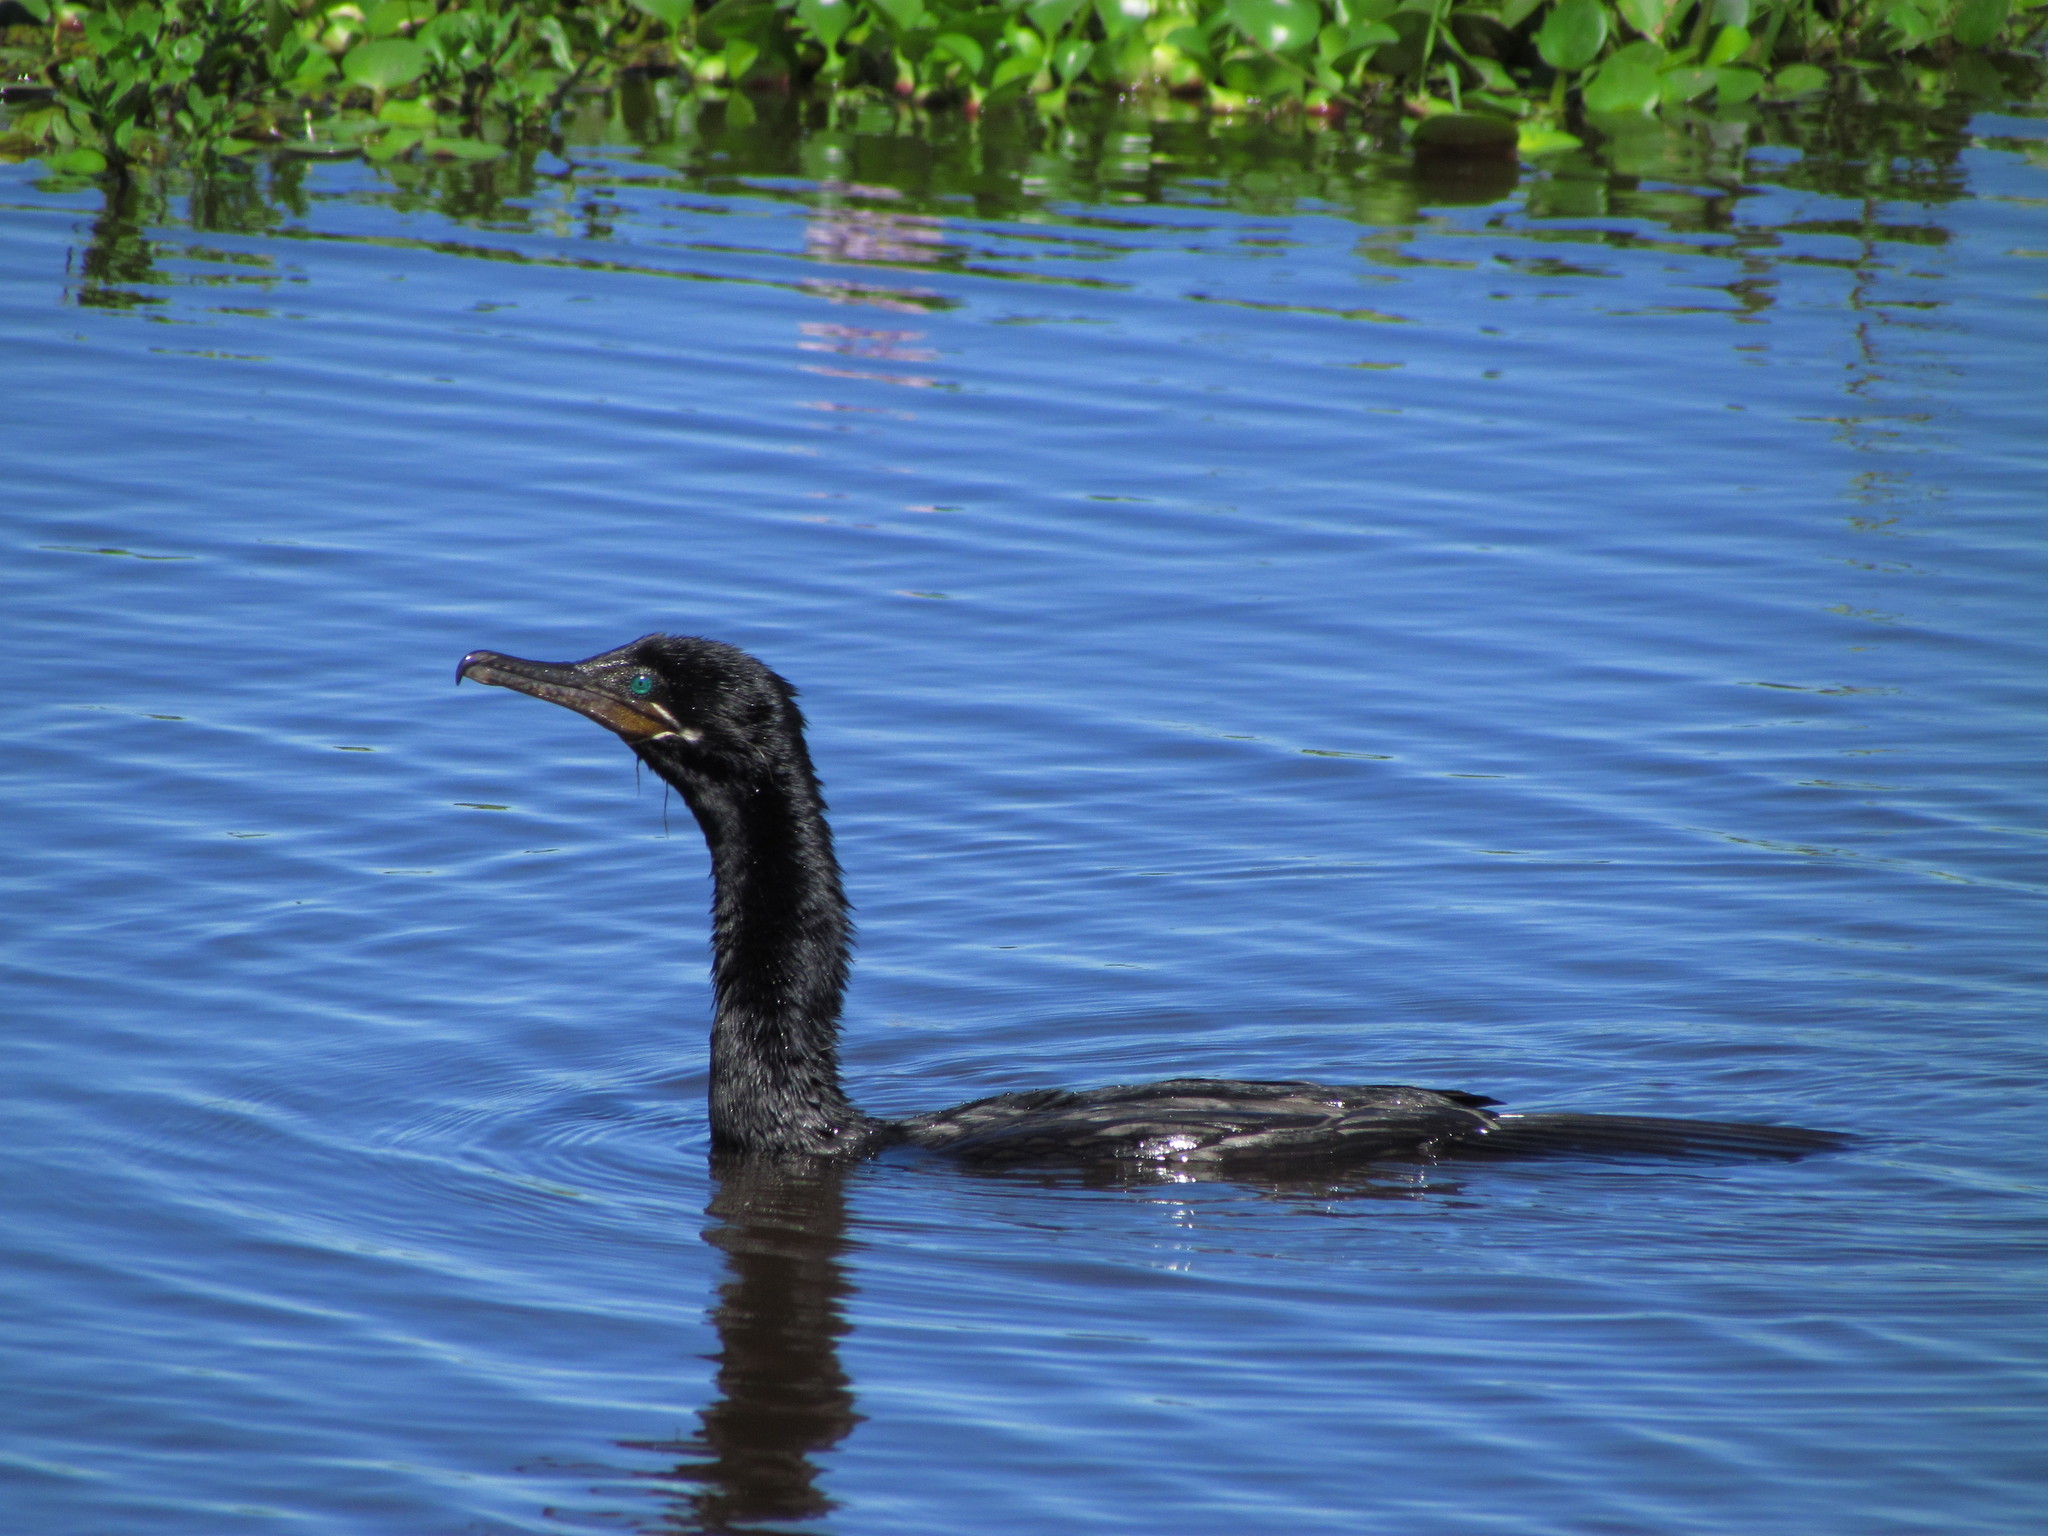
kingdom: Animalia
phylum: Chordata
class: Aves
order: Suliformes
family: Phalacrocoracidae
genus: Phalacrocorax
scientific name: Phalacrocorax brasilianus
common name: Neotropic cormorant
